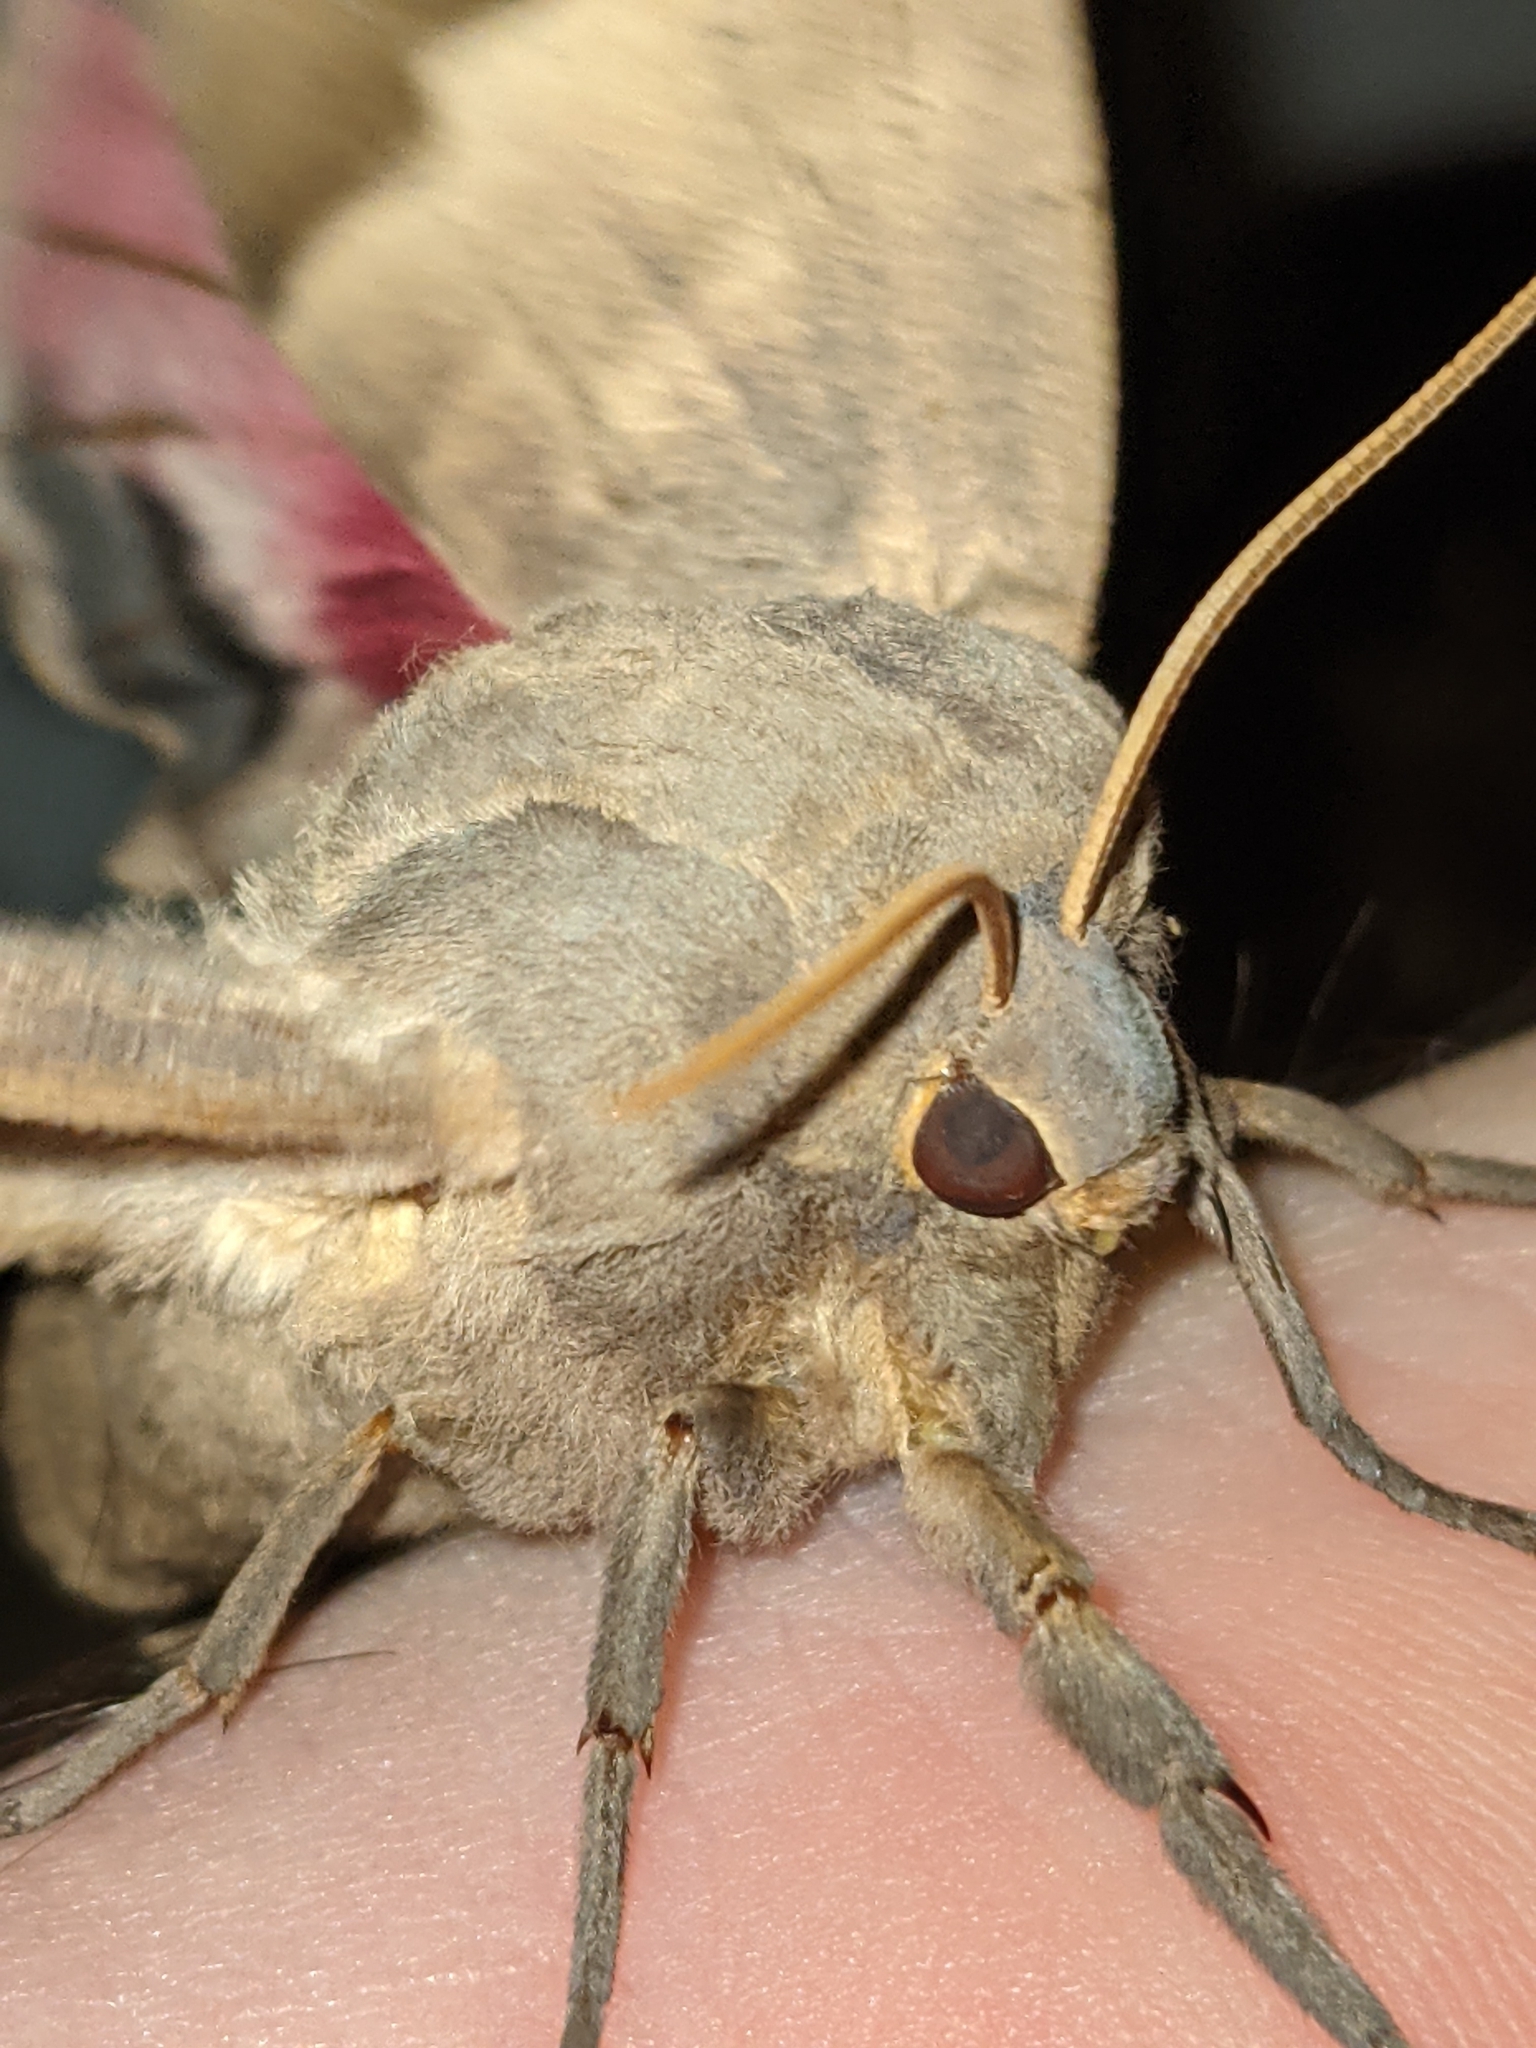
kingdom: Animalia
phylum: Arthropoda
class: Insecta
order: Lepidoptera
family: Sphingidae
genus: Pachysphinx
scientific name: Pachysphinx modesta
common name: Big poplar sphinx
